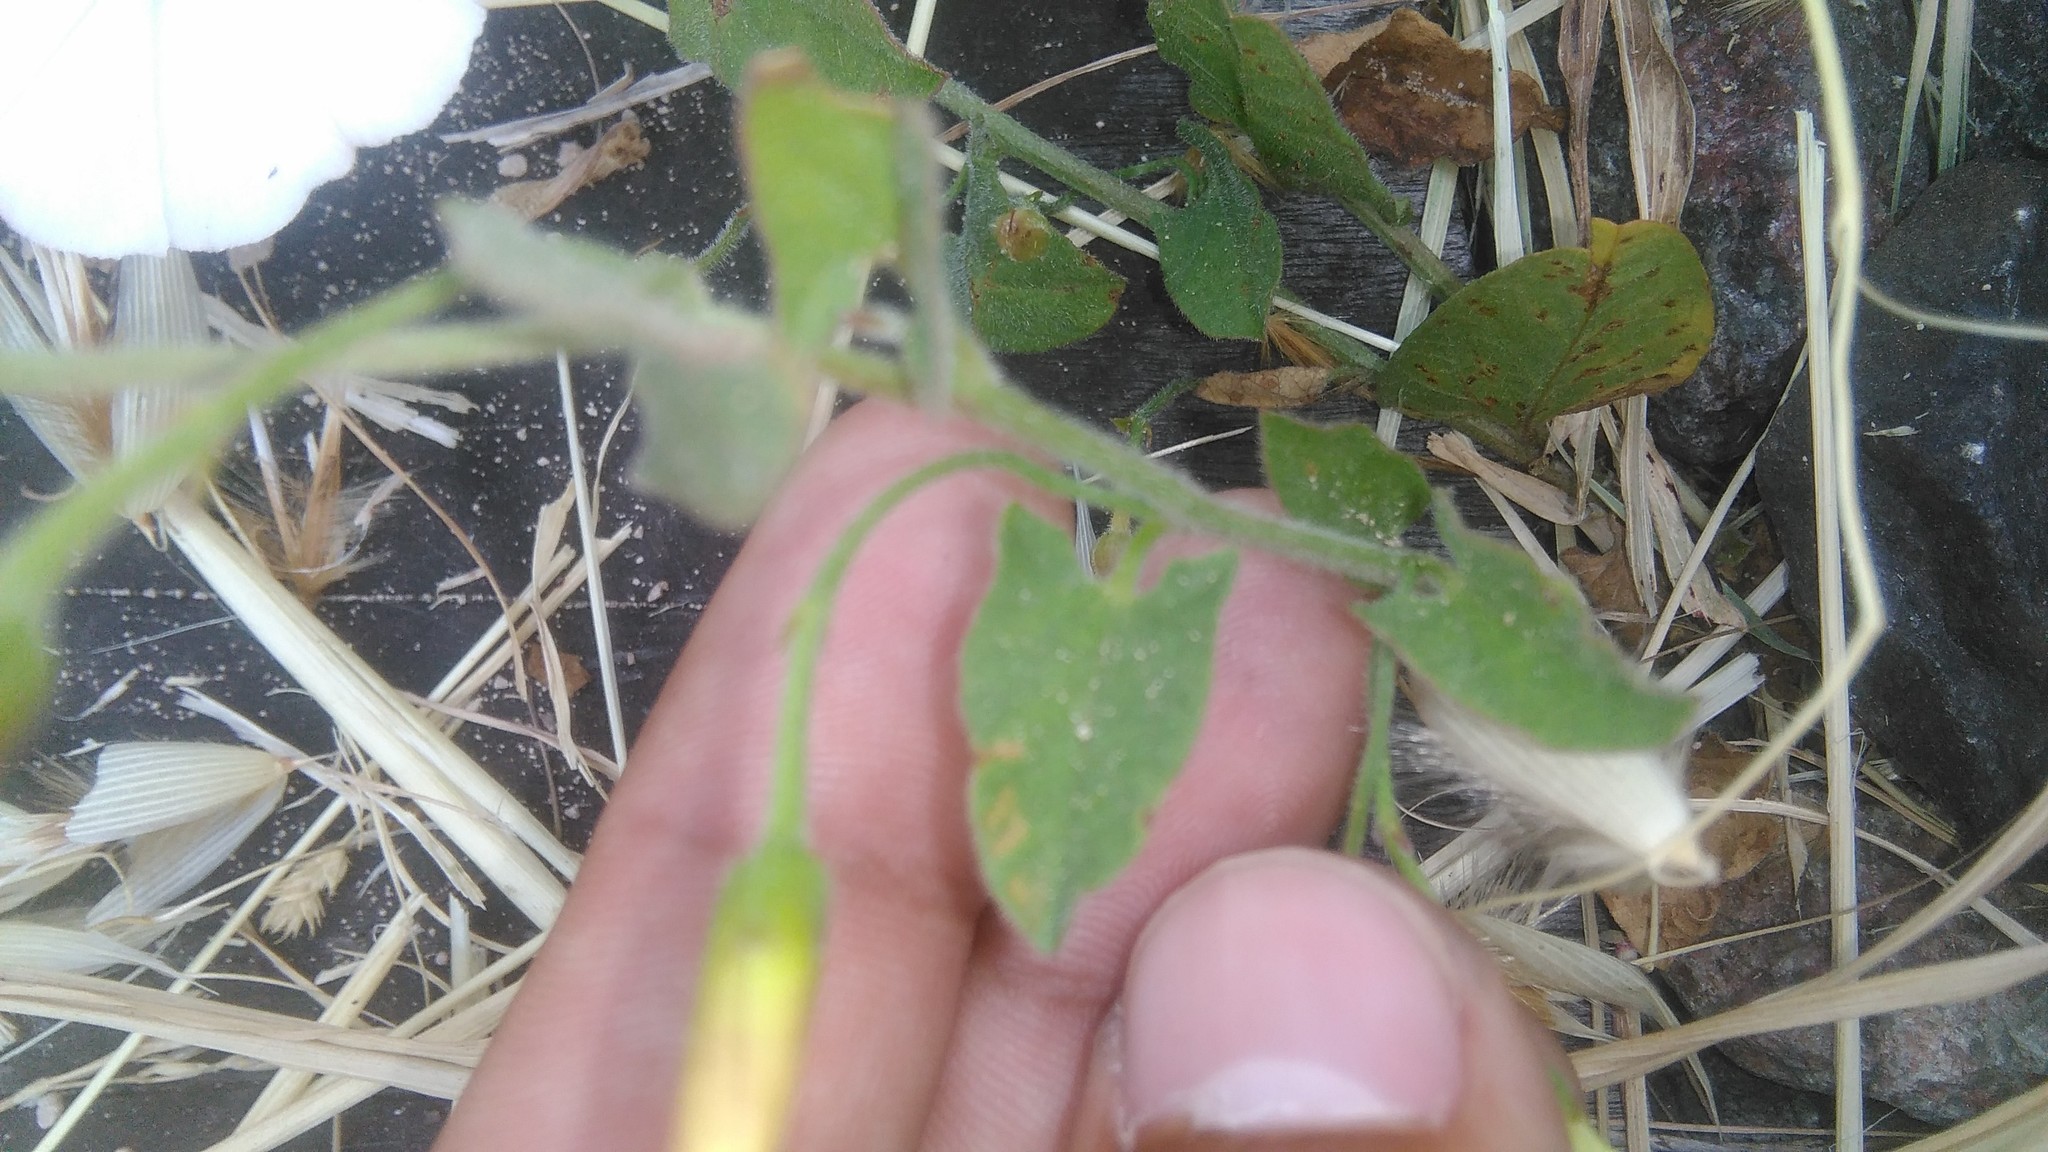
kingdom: Plantae
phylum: Tracheophyta
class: Magnoliopsida
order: Solanales
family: Convolvulaceae
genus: Convolvulus
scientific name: Convolvulus arvensis
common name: Field bindweed
